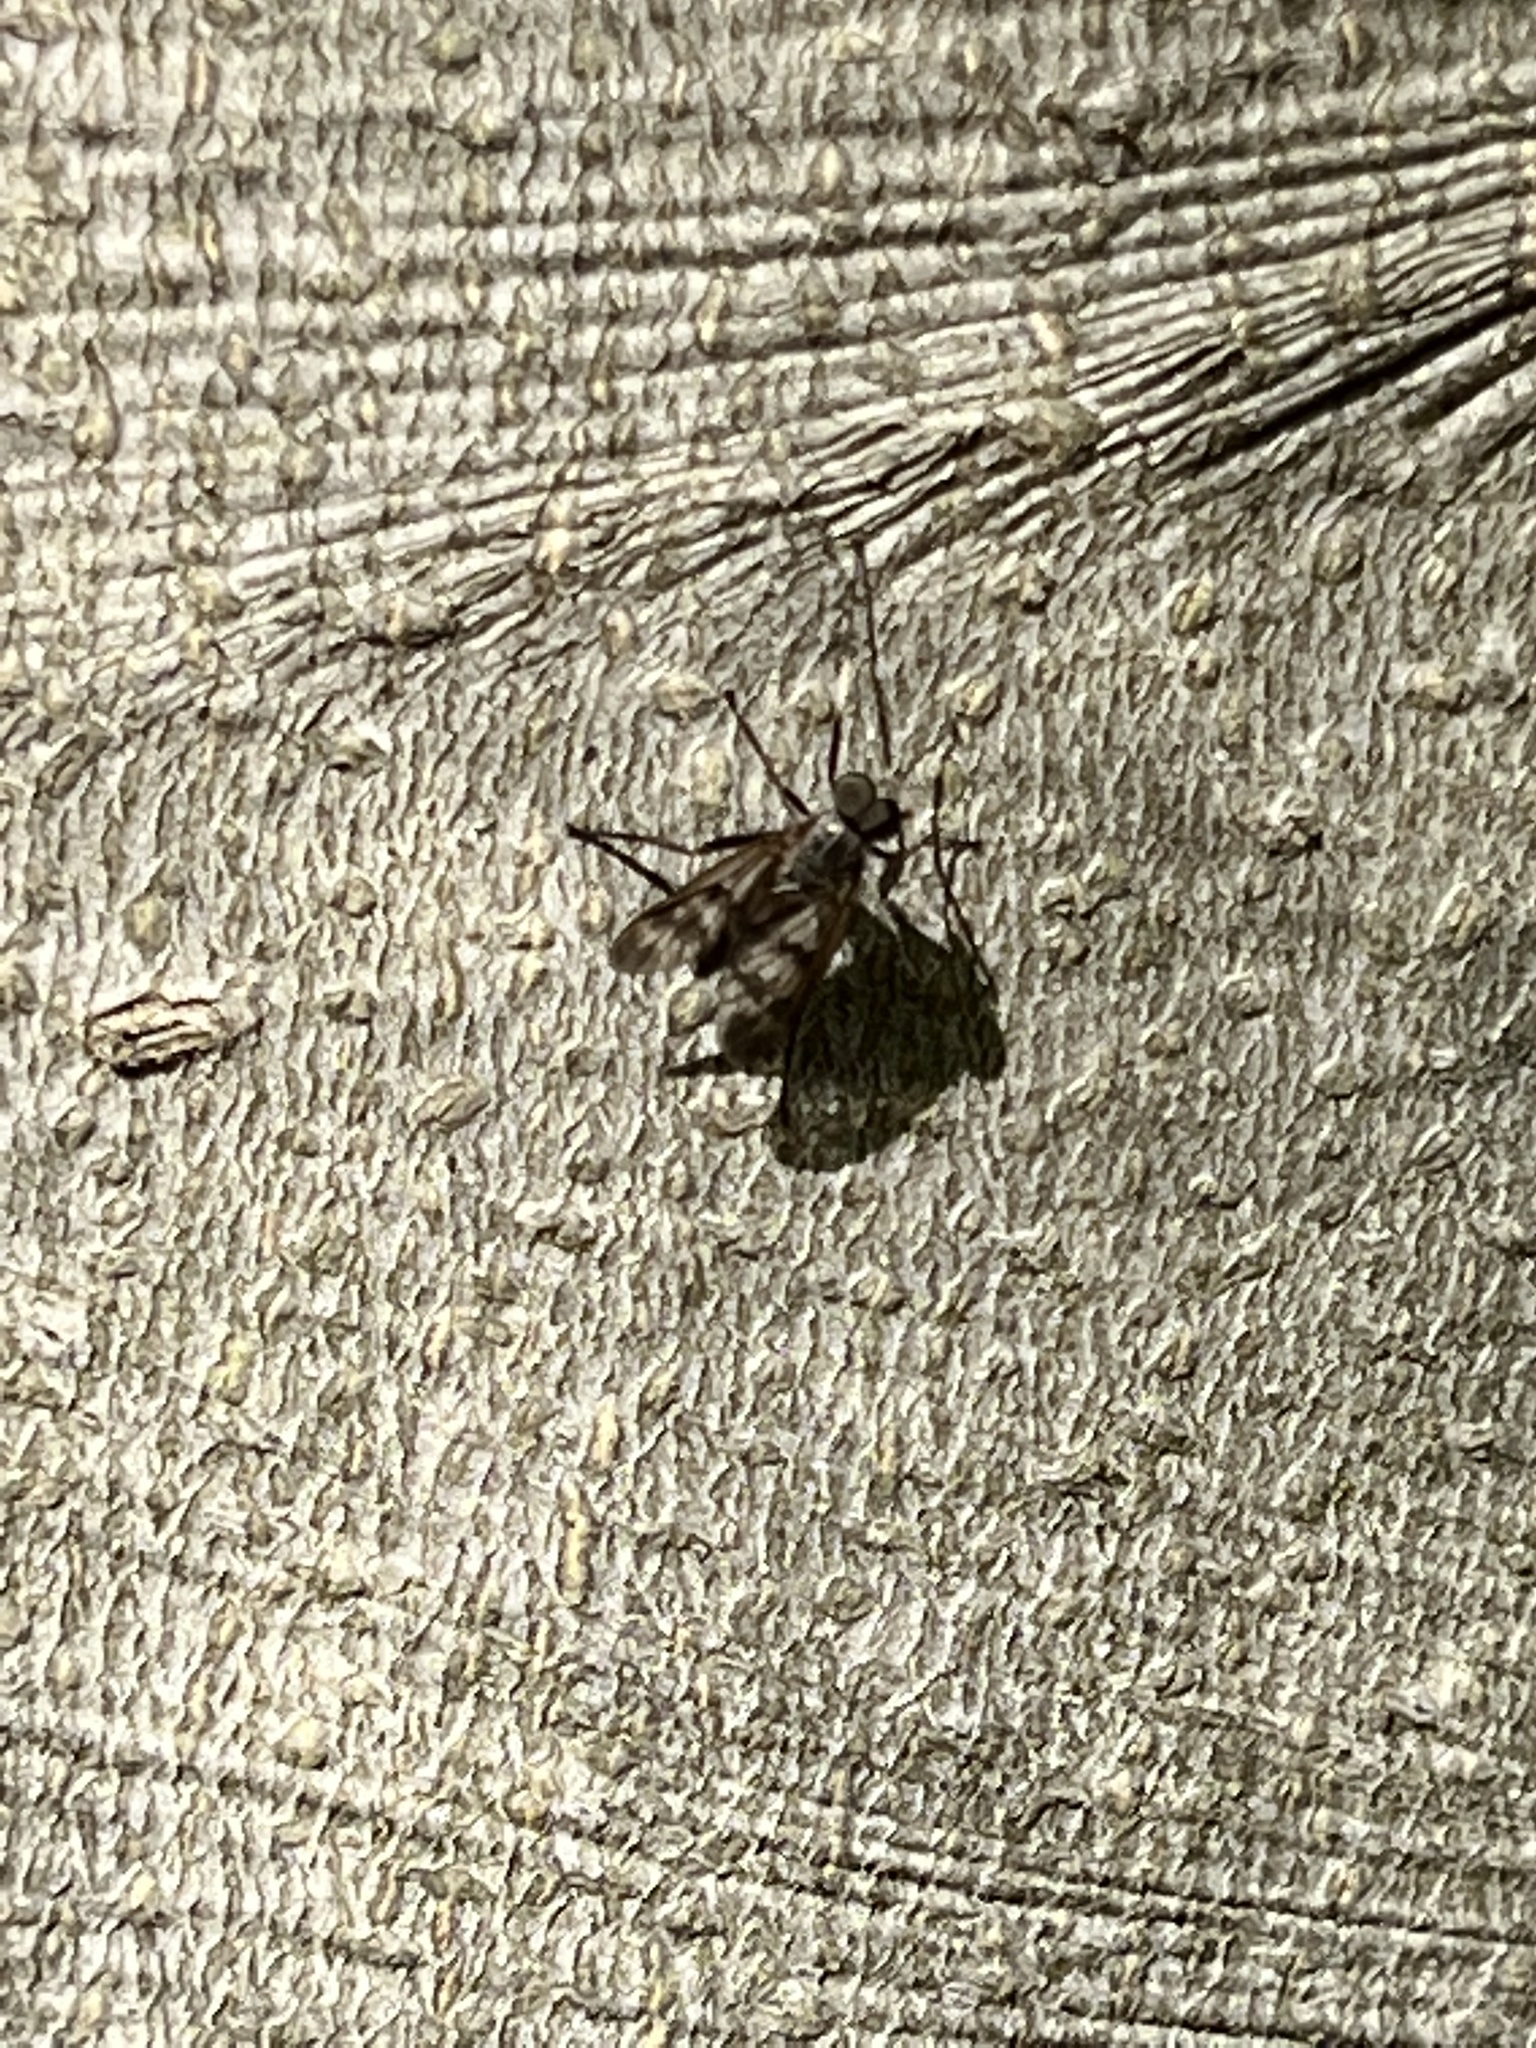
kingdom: Animalia
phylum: Arthropoda
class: Insecta
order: Diptera
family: Rhagionidae
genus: Rhagio
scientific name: Rhagio mystaceus
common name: Common snipe fly
